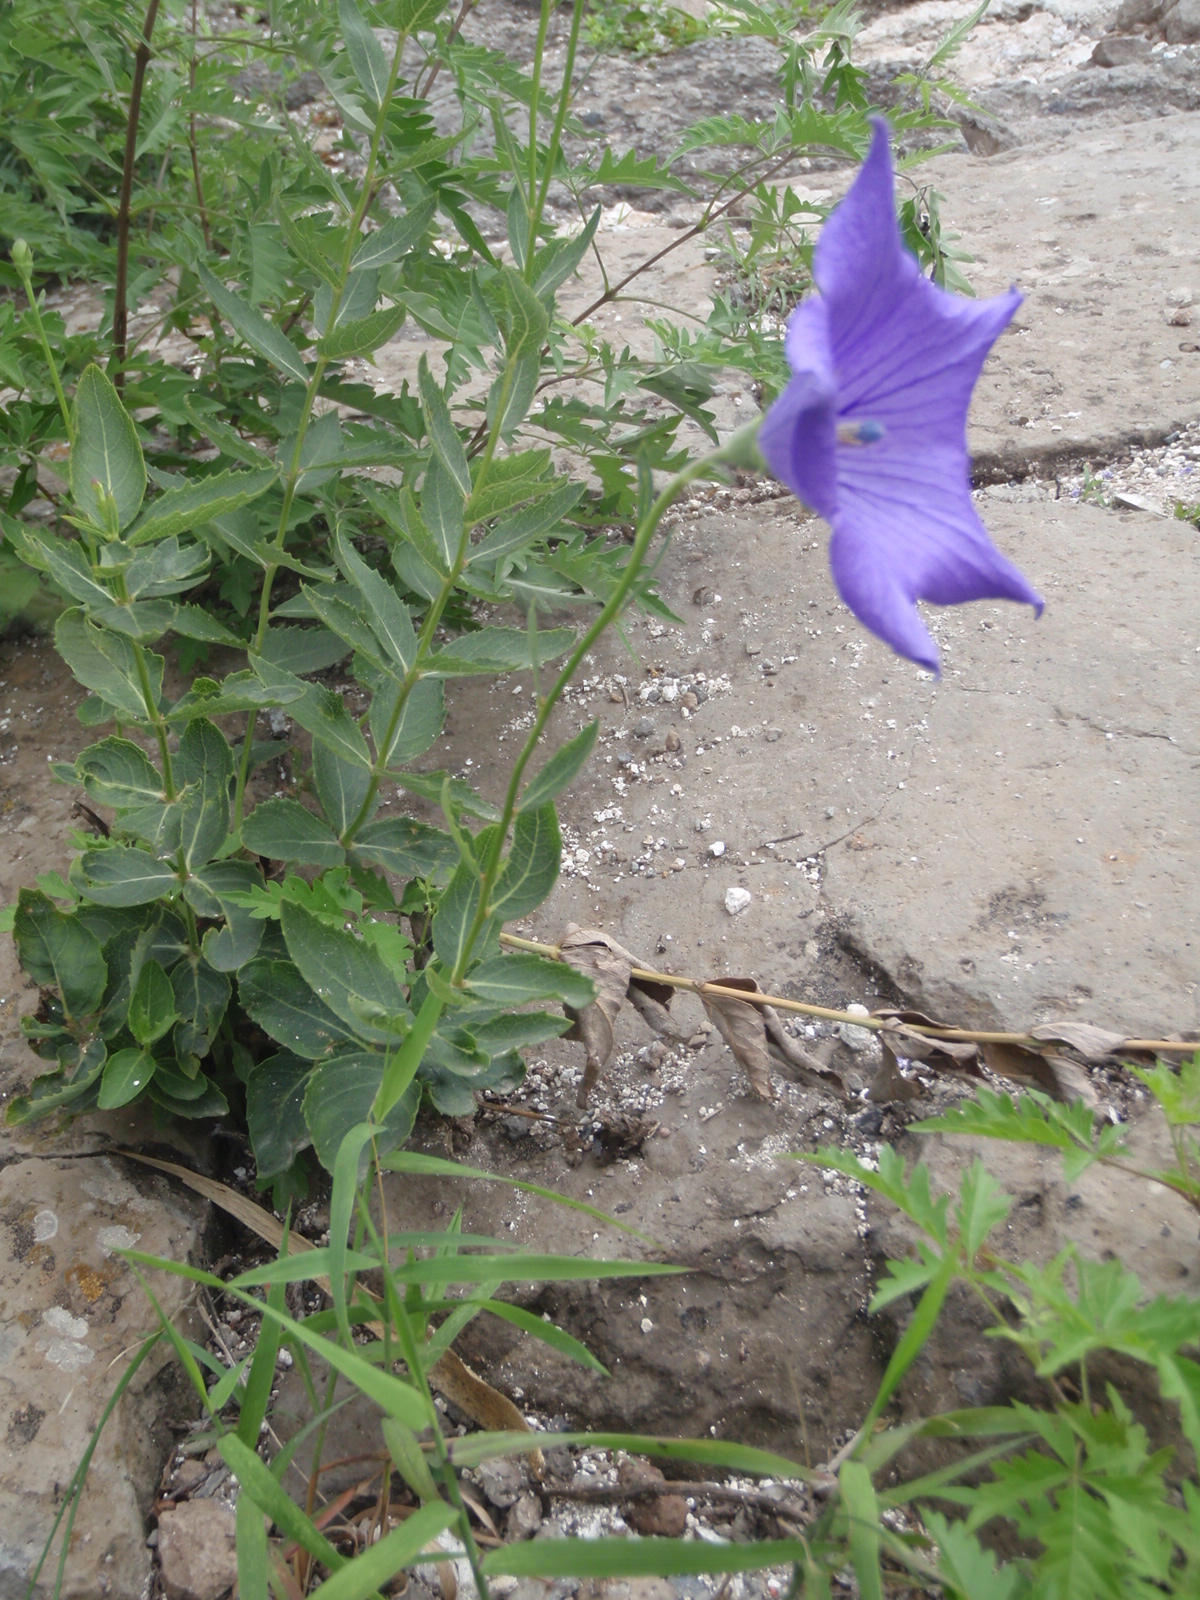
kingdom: Plantae
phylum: Tracheophyta
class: Magnoliopsida
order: Asterales
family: Campanulaceae
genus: Platycodon
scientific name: Platycodon grandiflorus
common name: Balloon-flower
